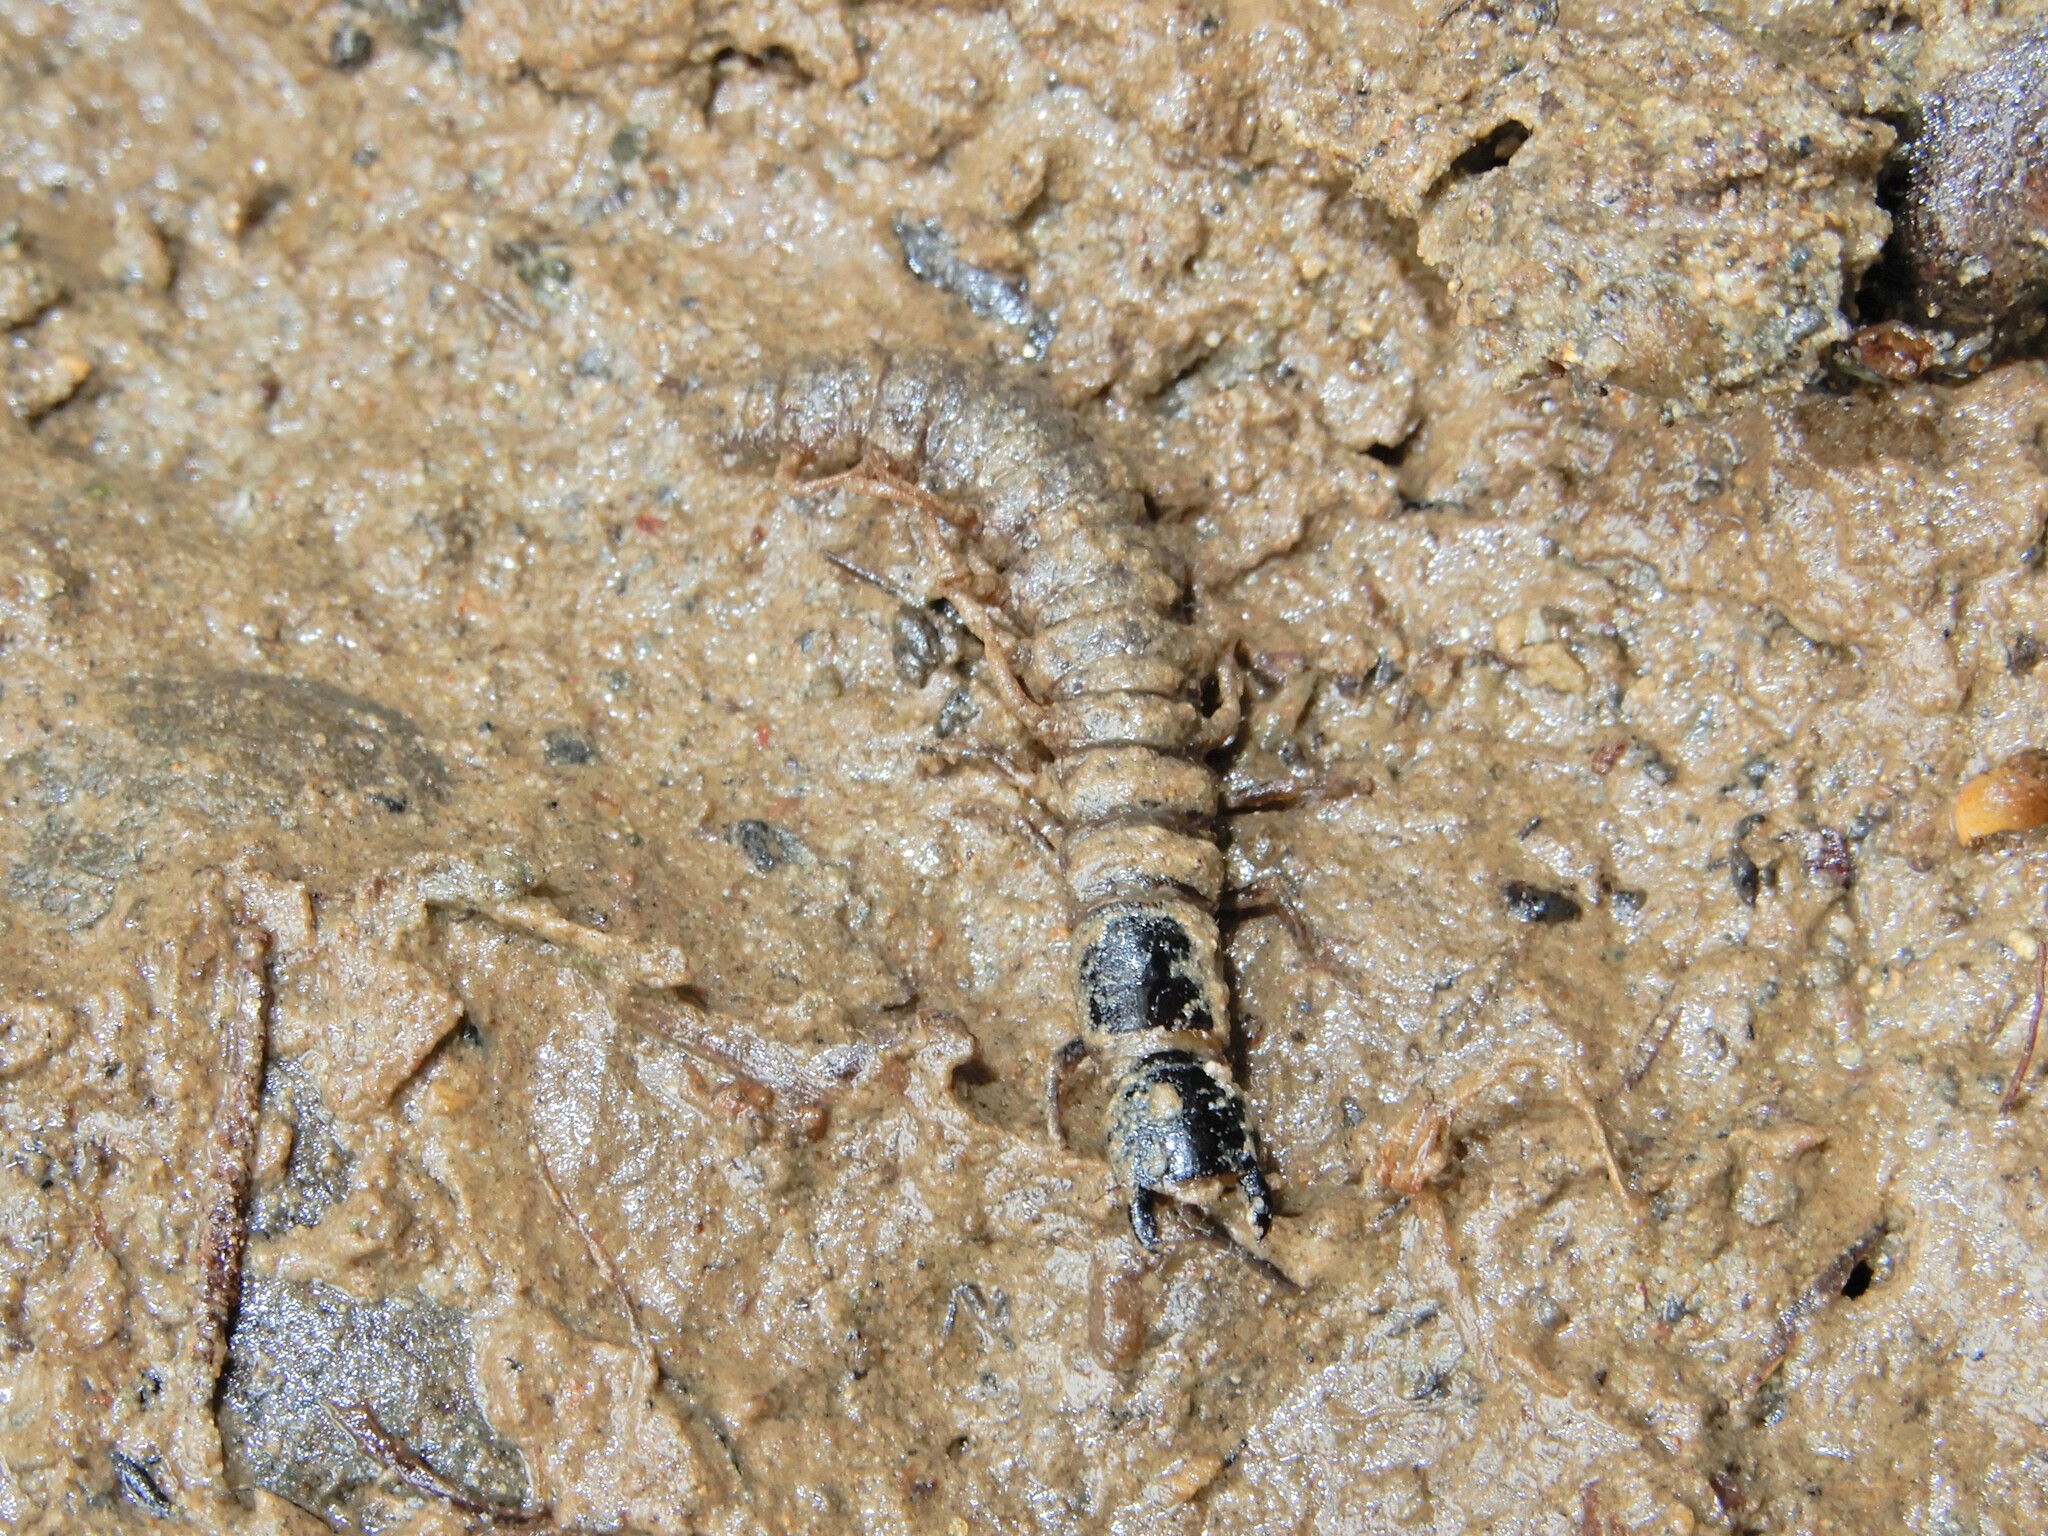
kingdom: Animalia
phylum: Arthropoda
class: Insecta
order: Megaloptera
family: Corydalidae
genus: Archichauliodes
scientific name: Archichauliodes diversus
